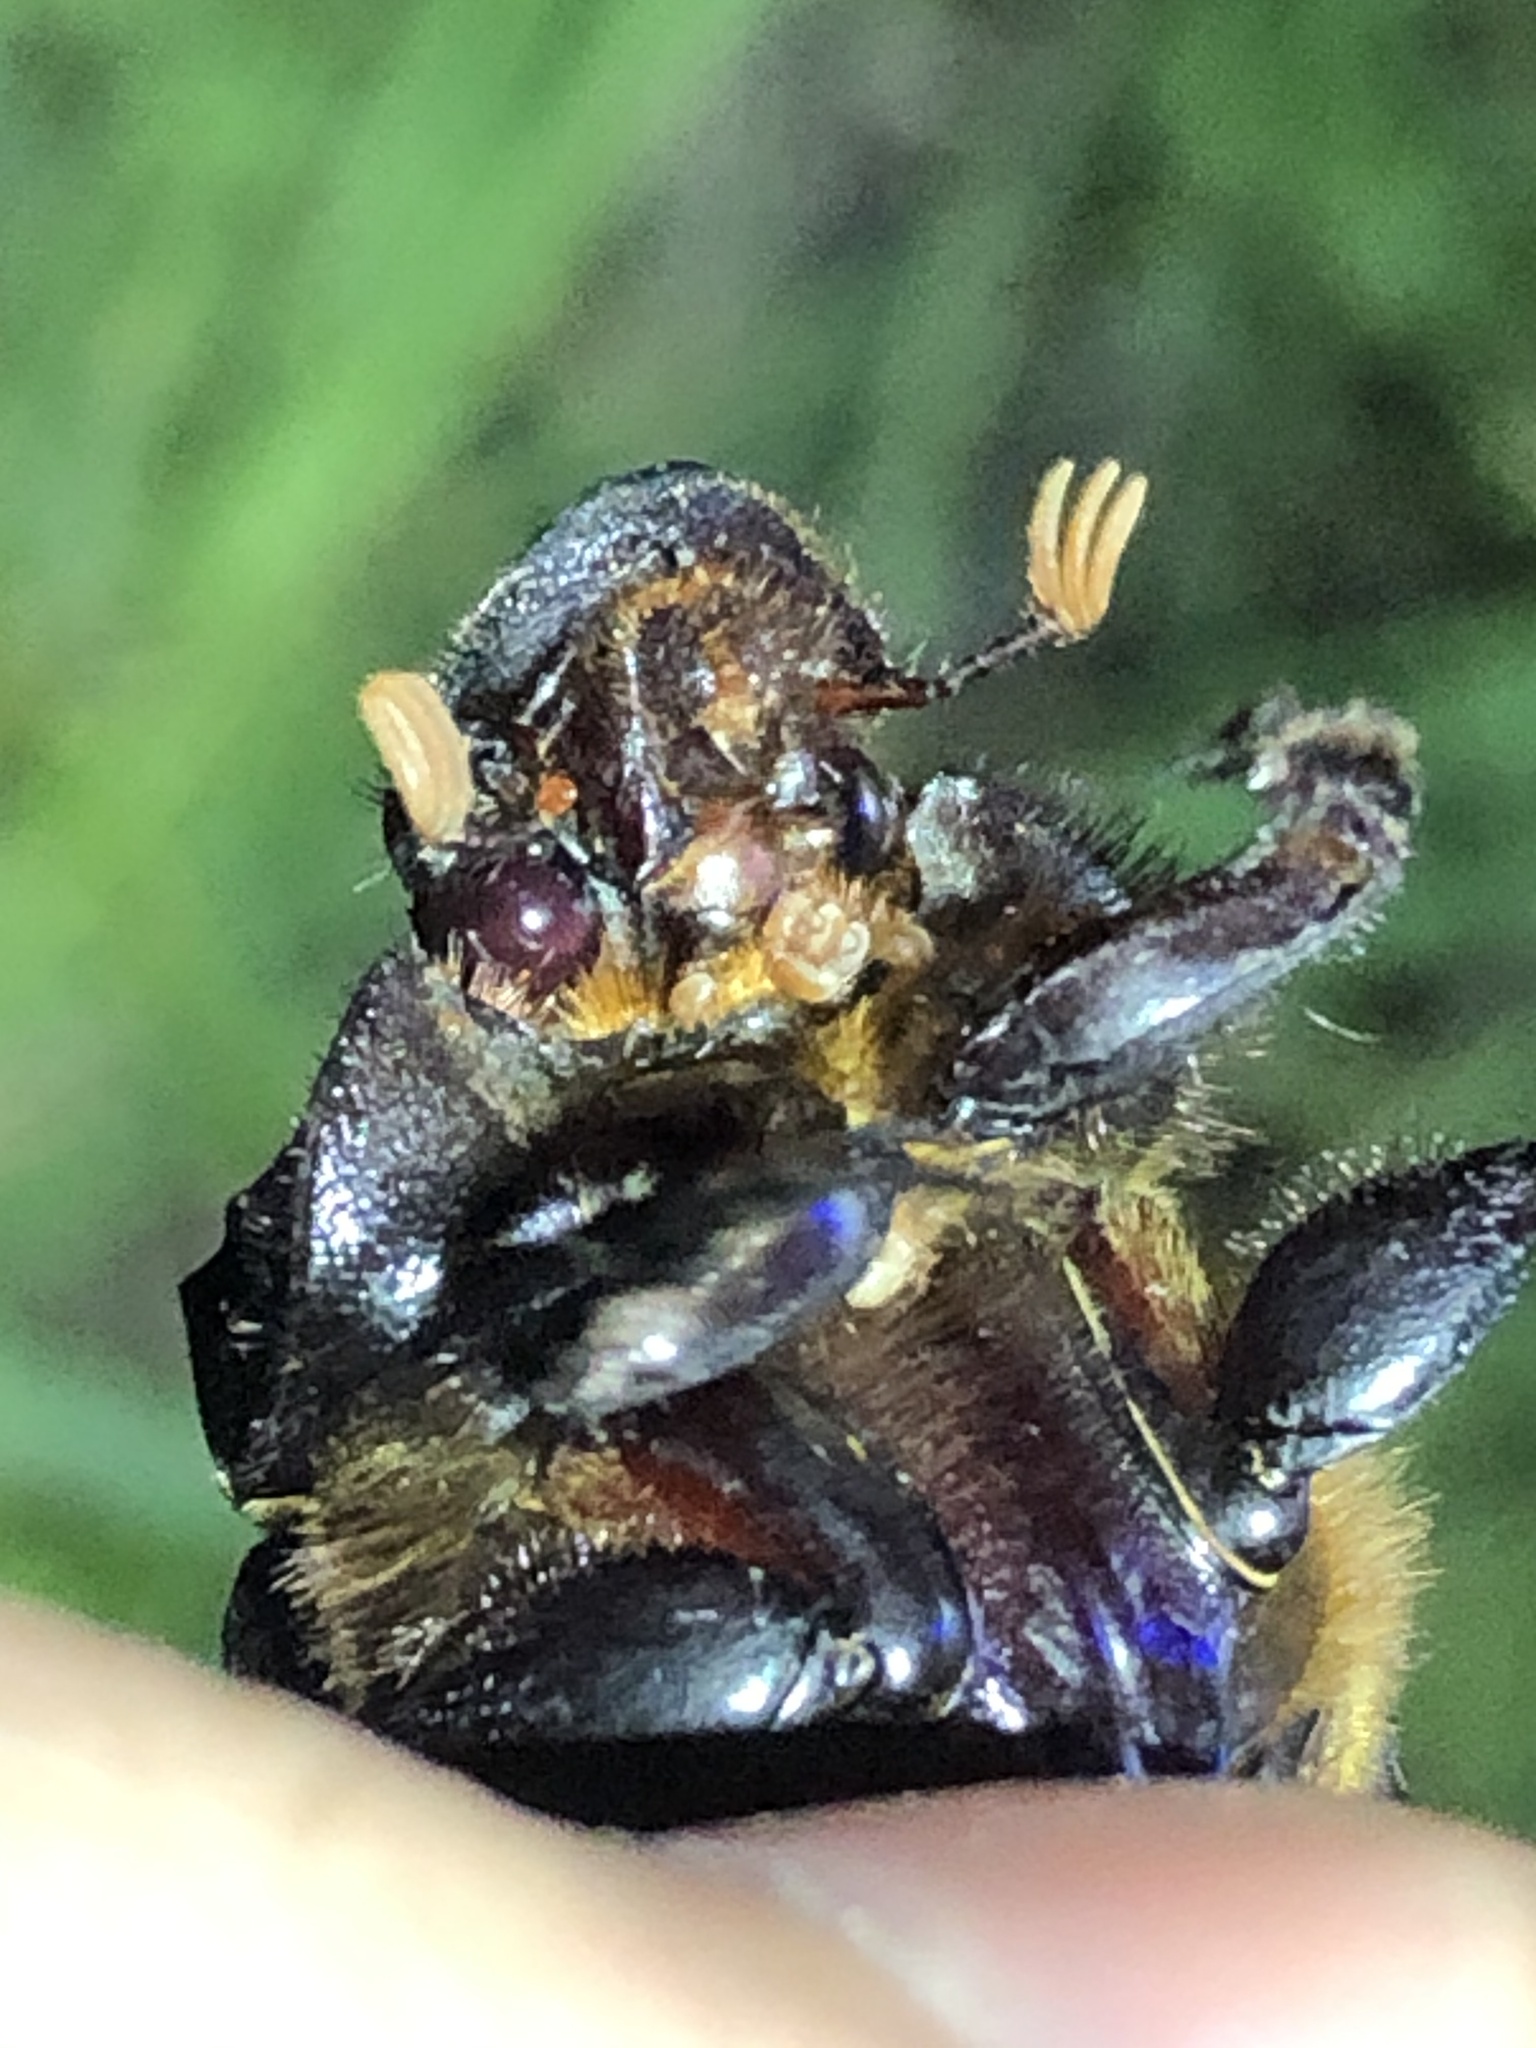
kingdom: Animalia
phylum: Arthropoda
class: Insecta
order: Coleoptera
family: Scarabaeidae
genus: Dichotomius
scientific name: Dichotomius colonicus
